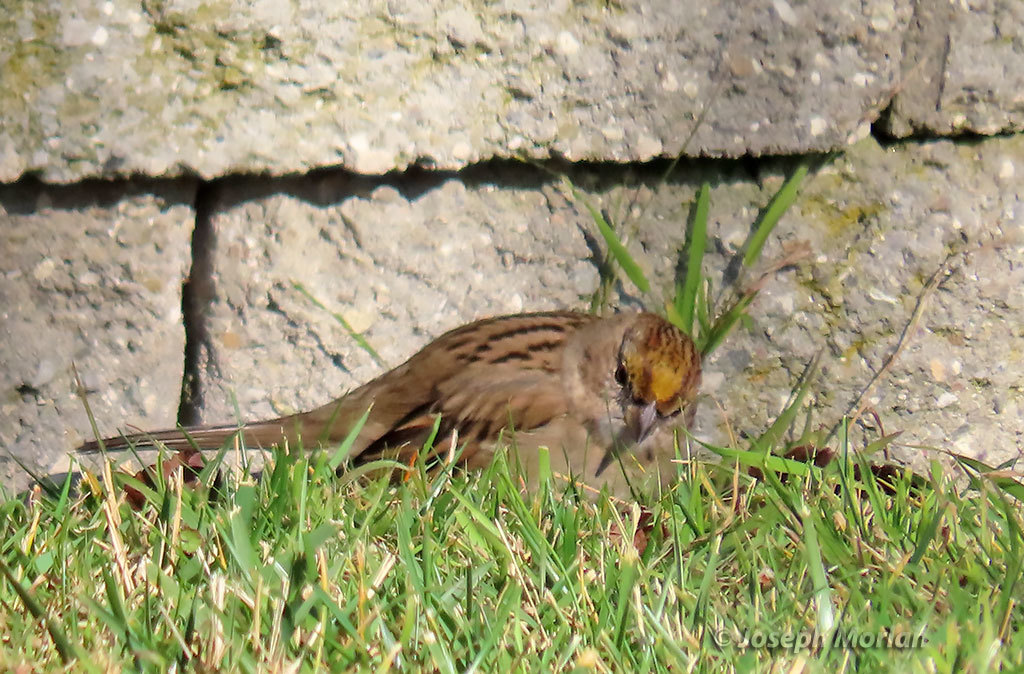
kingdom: Animalia
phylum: Chordata
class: Aves
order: Passeriformes
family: Passerellidae
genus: Zonotrichia
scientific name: Zonotrichia atricapilla
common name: Golden-crowned sparrow
